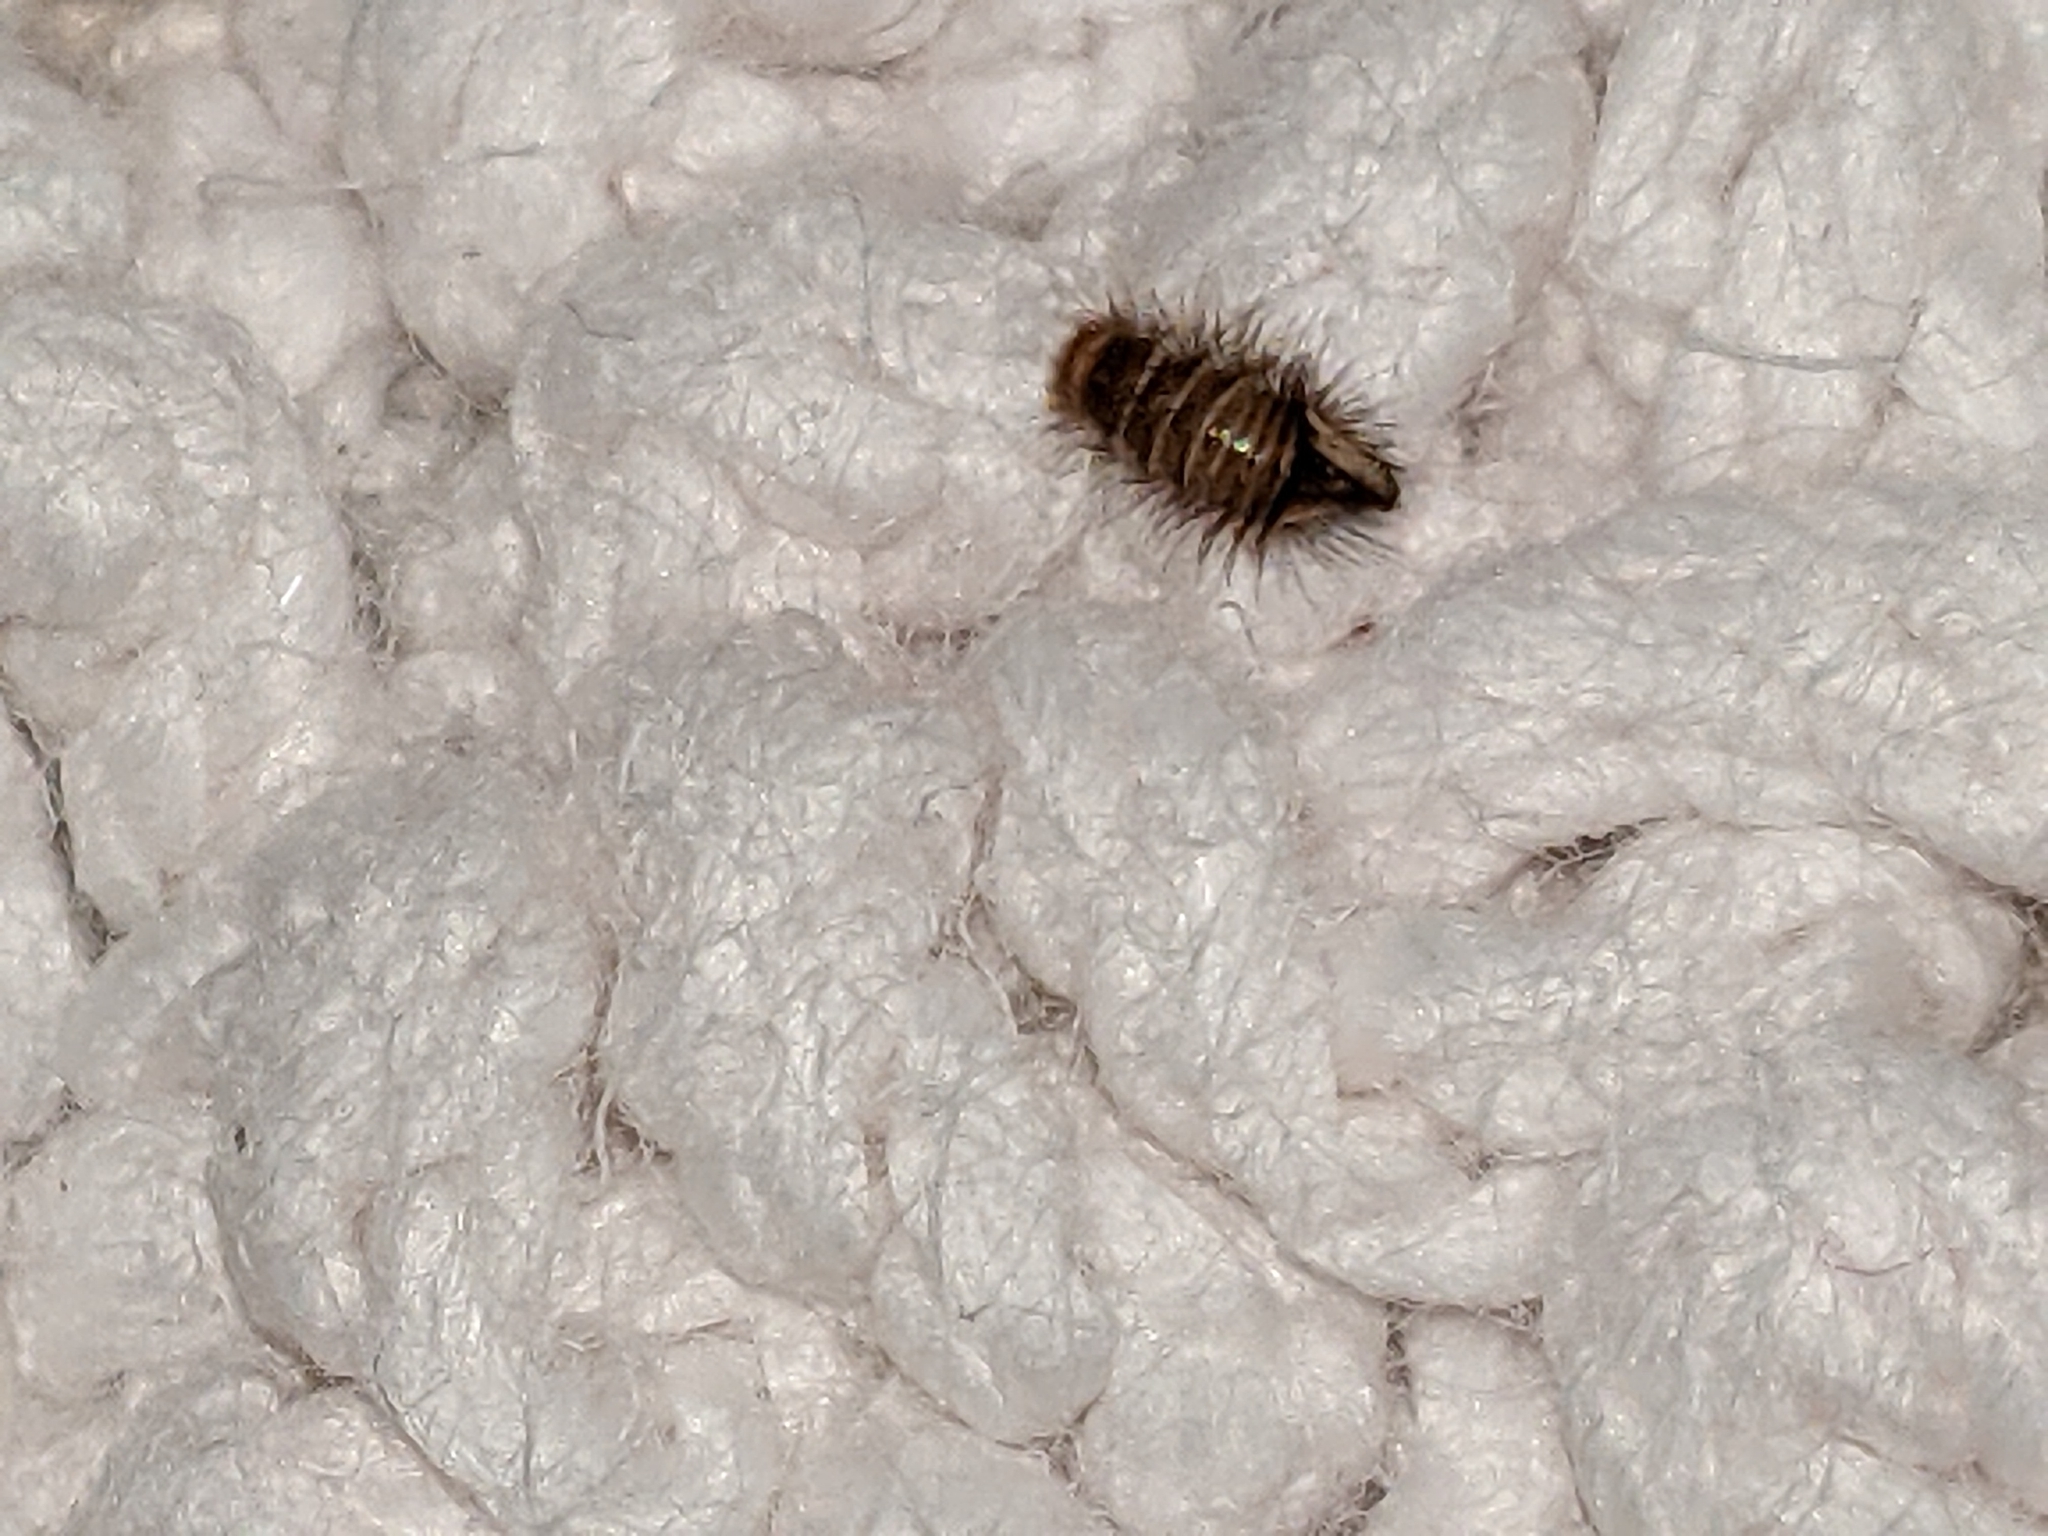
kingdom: Animalia
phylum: Arthropoda
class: Insecta
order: Coleoptera
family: Dermestidae
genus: Anthrenus
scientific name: Anthrenus verbasci
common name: Varied carpet beetle
